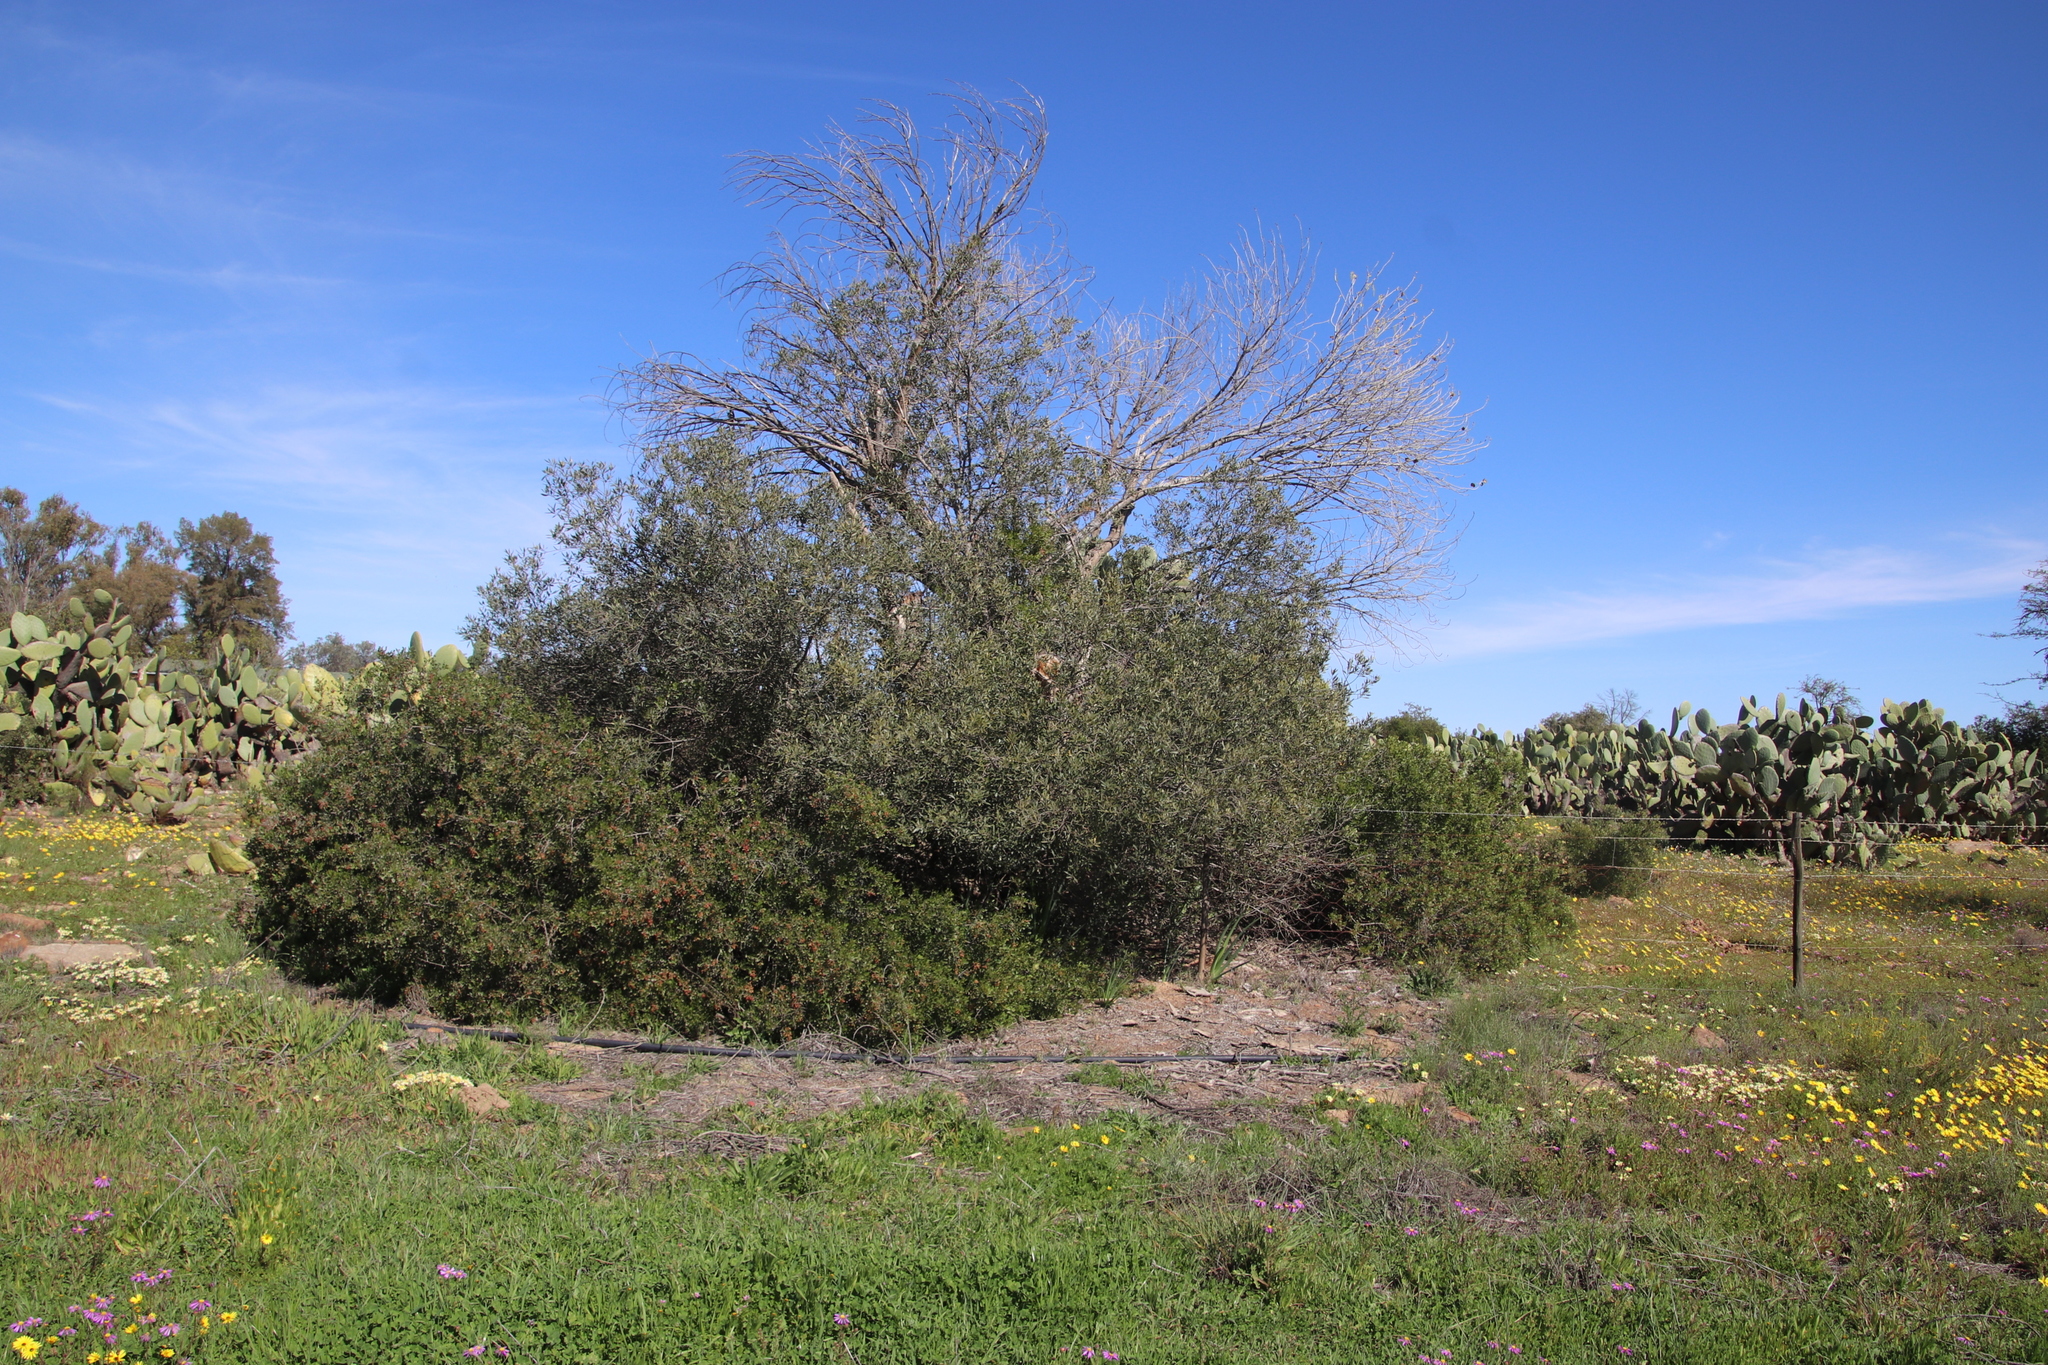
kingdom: Plantae
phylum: Tracheophyta
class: Magnoliopsida
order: Sapindales
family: Anacardiaceae
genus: Searsia
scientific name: Searsia undulata
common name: Namaqua kunibush
